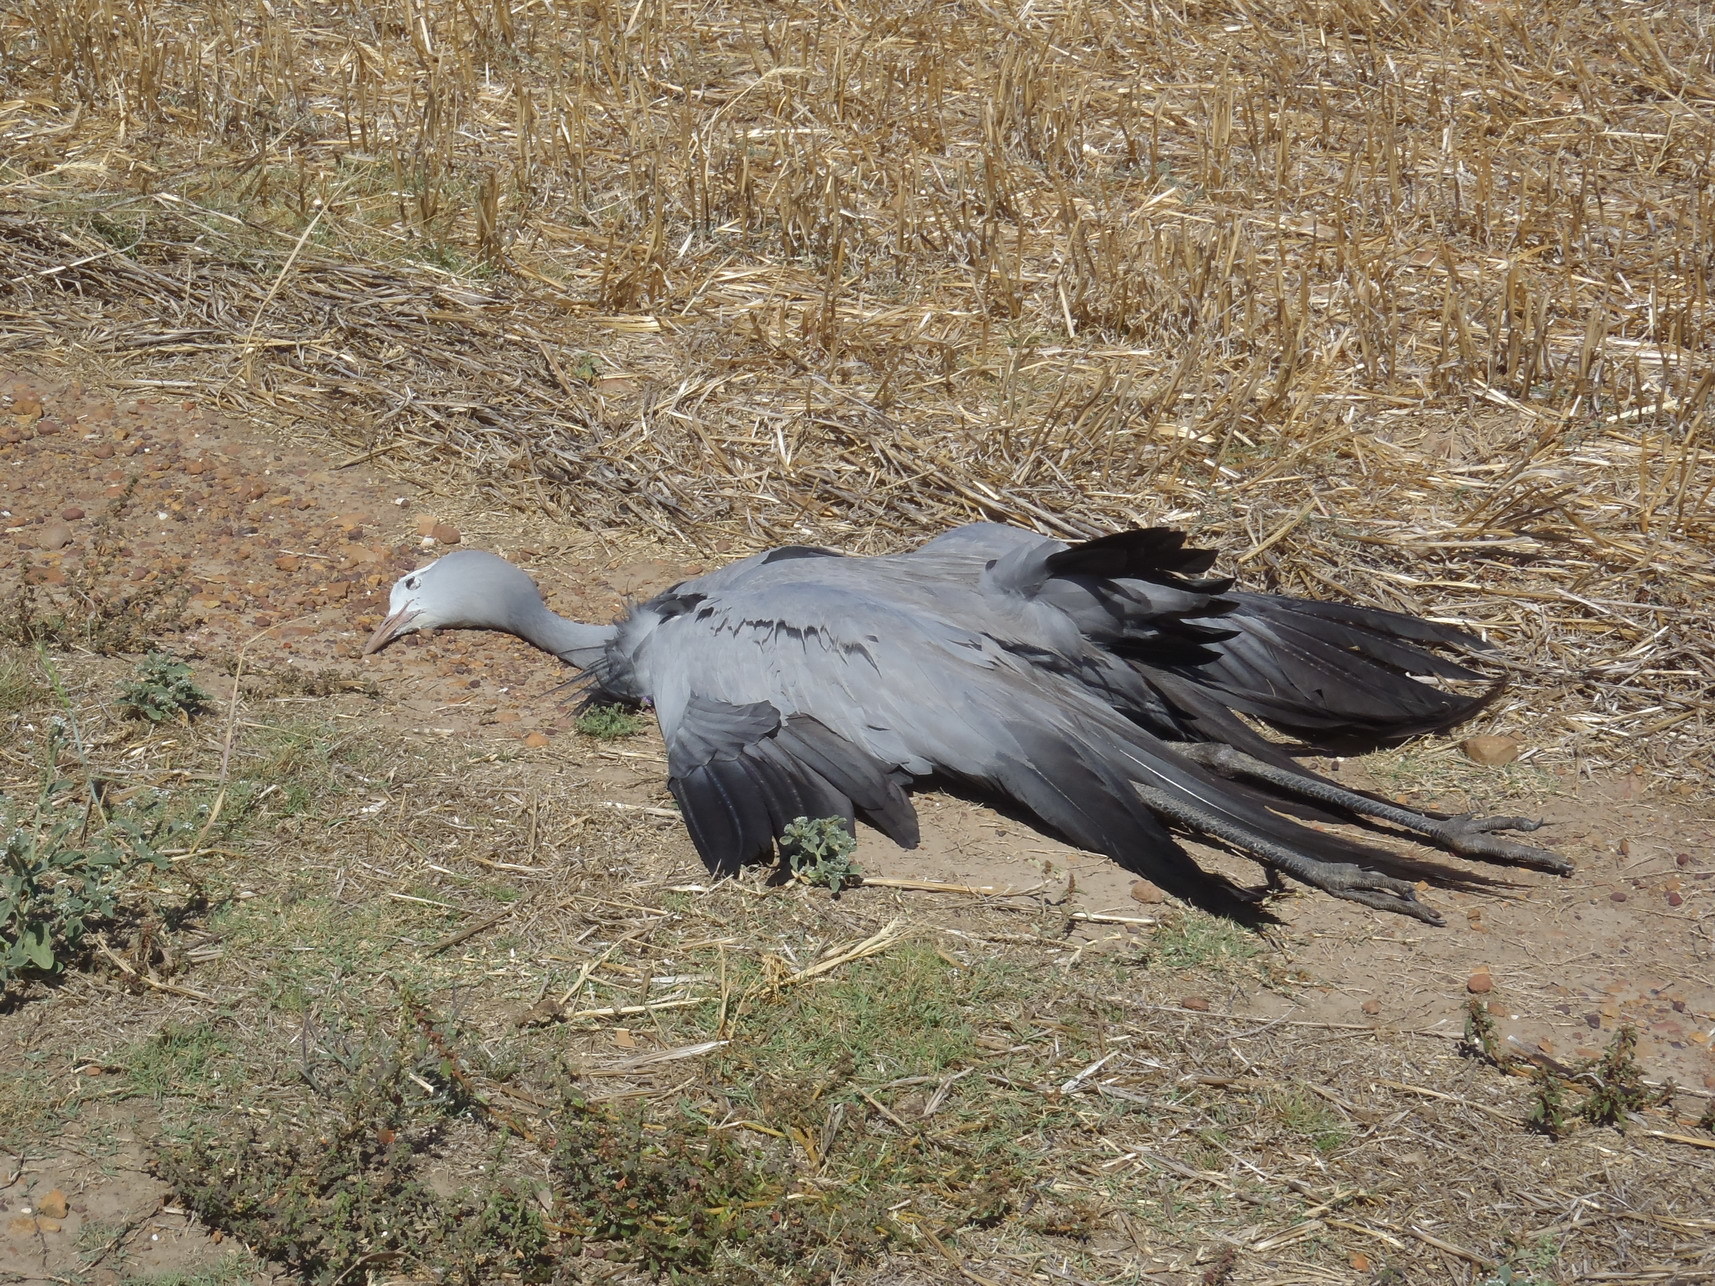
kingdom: Animalia
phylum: Chordata
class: Aves
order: Gruiformes
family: Gruidae
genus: Anthropoides
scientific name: Anthropoides paradiseus
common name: Blue crane
